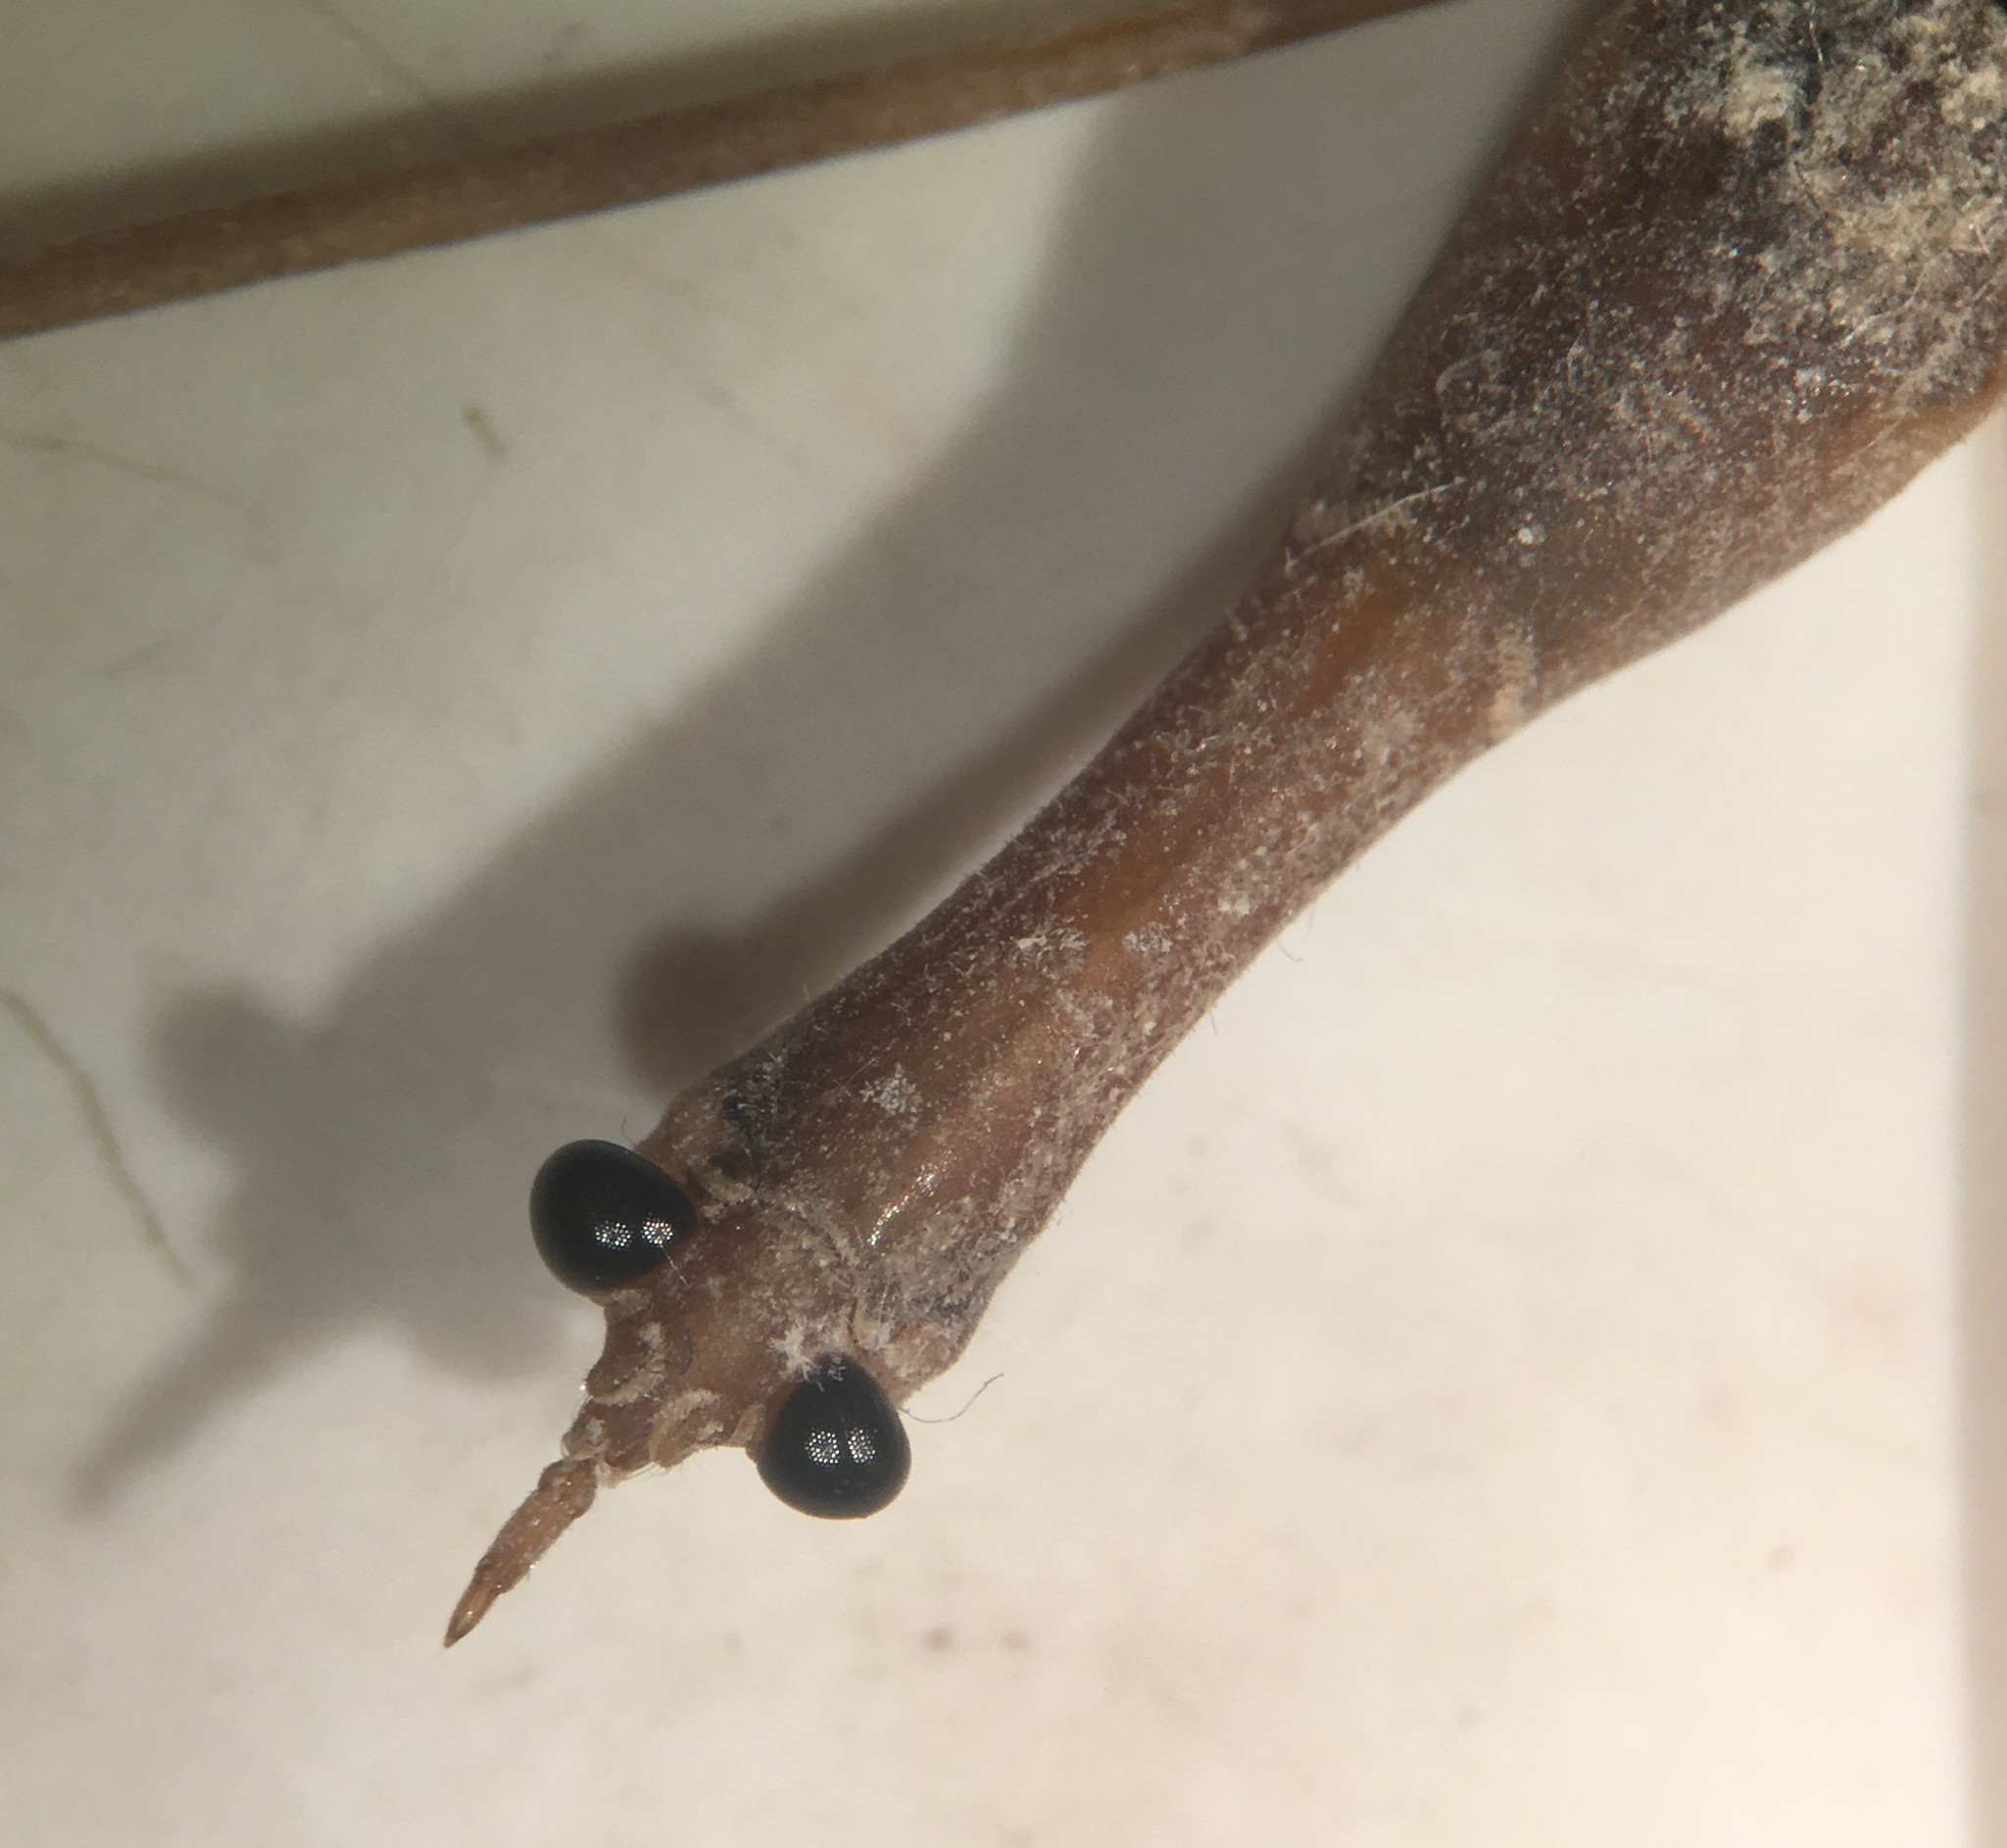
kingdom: Animalia
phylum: Arthropoda
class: Insecta
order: Hemiptera
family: Nepidae
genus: Ranatra
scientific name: Ranatra australis
